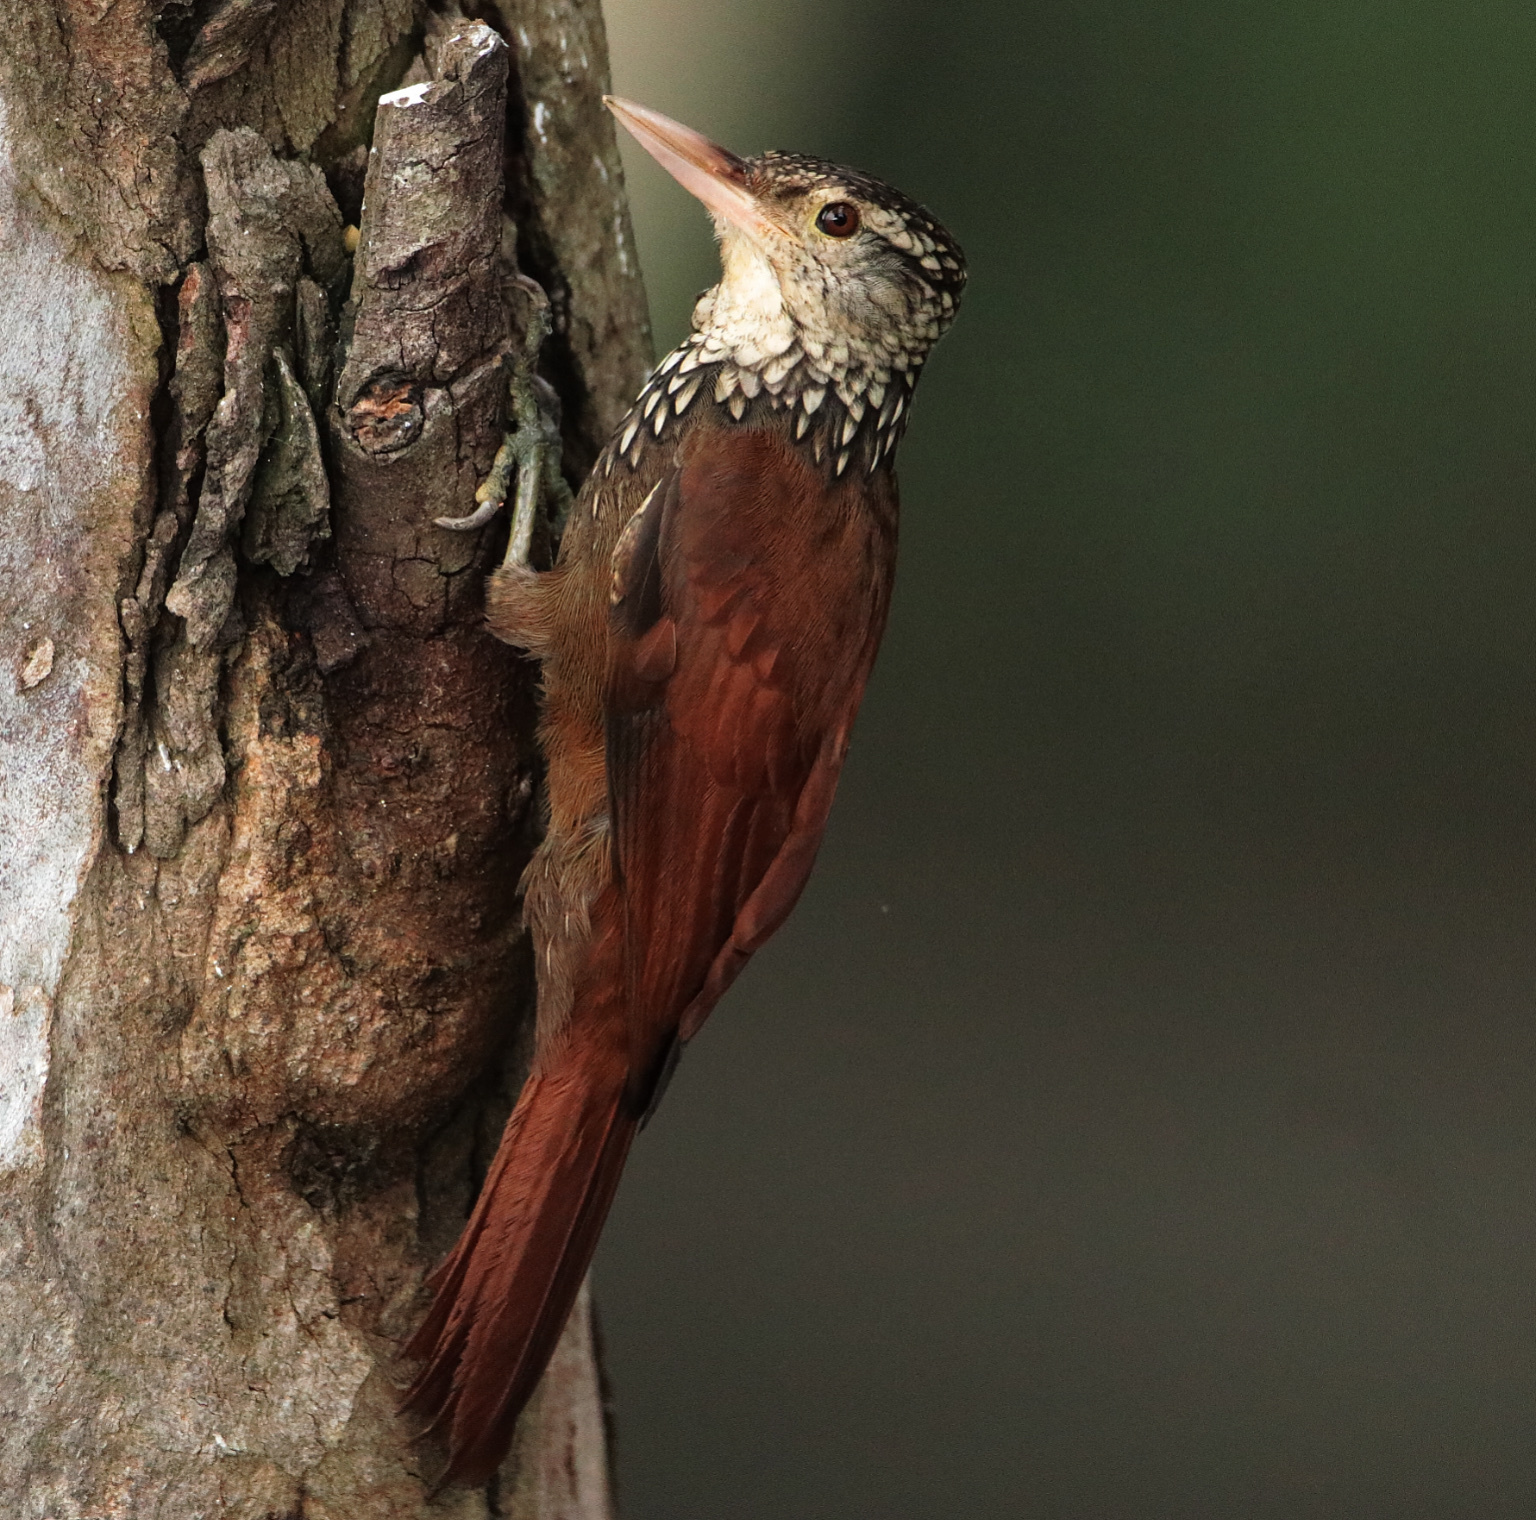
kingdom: Animalia
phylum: Chordata
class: Aves
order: Passeriformes
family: Furnariidae
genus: Xiphorhynchus
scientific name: Xiphorhynchus picus
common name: Straight-billed woodcreeper
